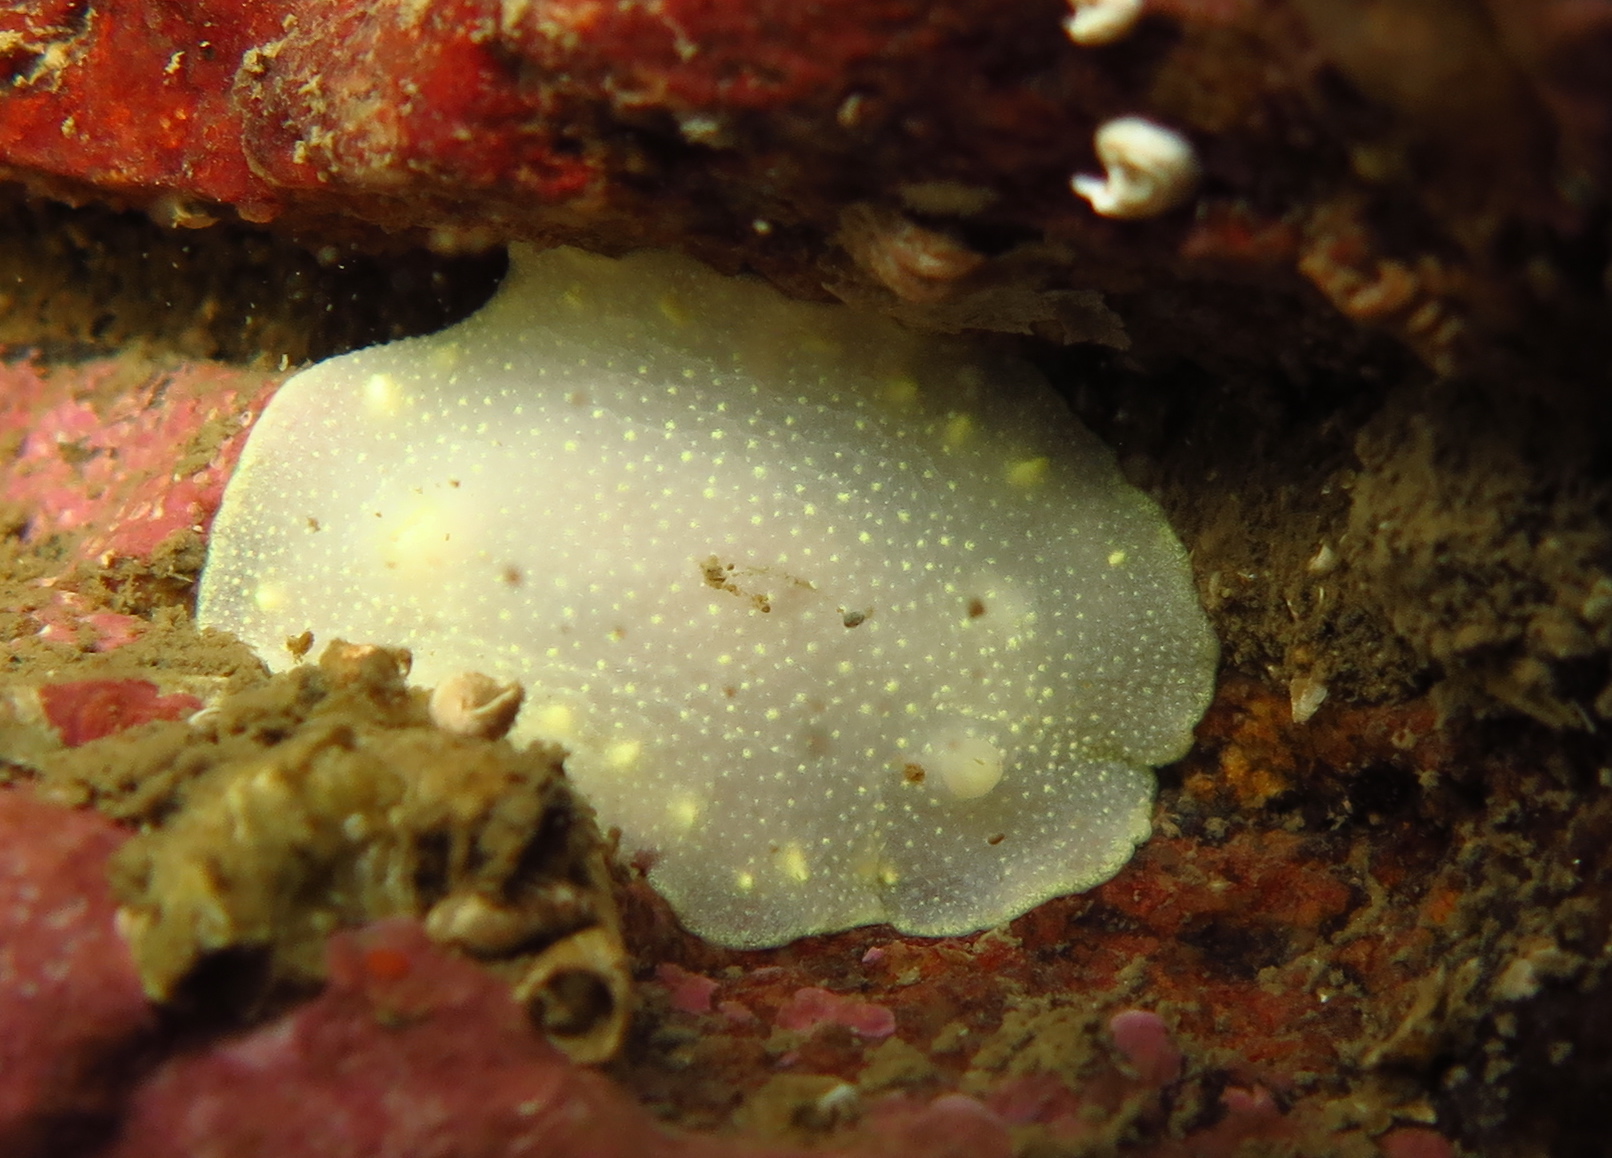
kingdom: Animalia
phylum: Mollusca
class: Gastropoda
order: Nudibranchia
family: Cadlinidae
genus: Cadlina
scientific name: Cadlina laevis
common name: White atlantic cadlina
